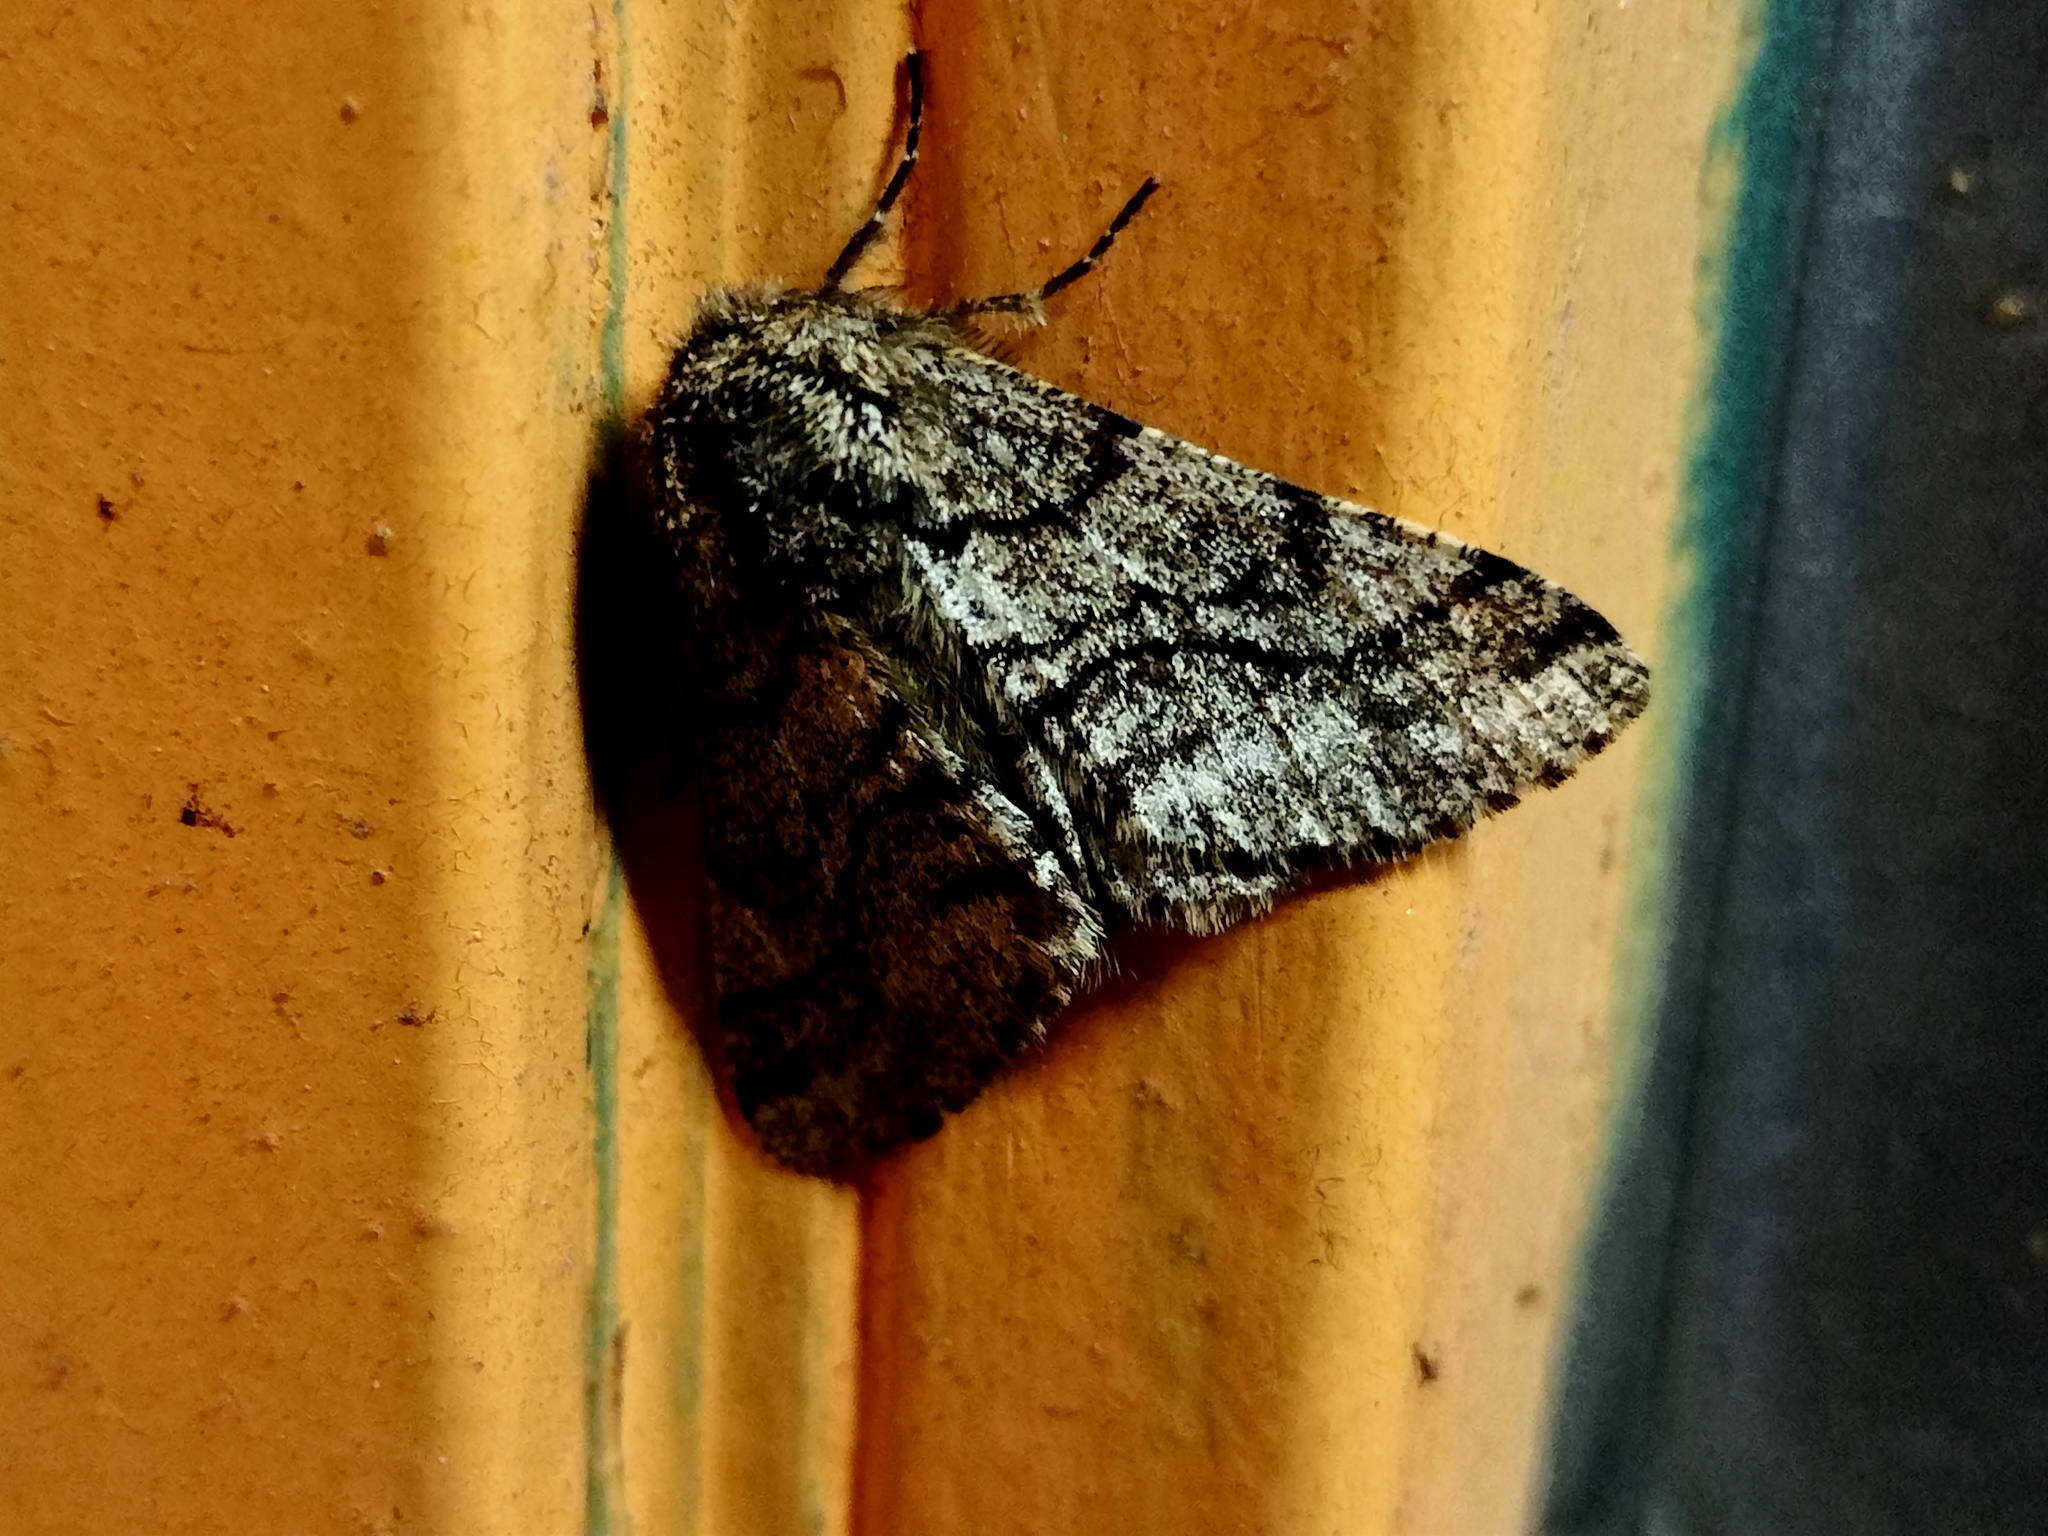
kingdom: Animalia
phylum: Arthropoda
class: Insecta
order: Lepidoptera
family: Geometridae
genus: Lycia
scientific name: Lycia hirtaria
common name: Brindled beauty
